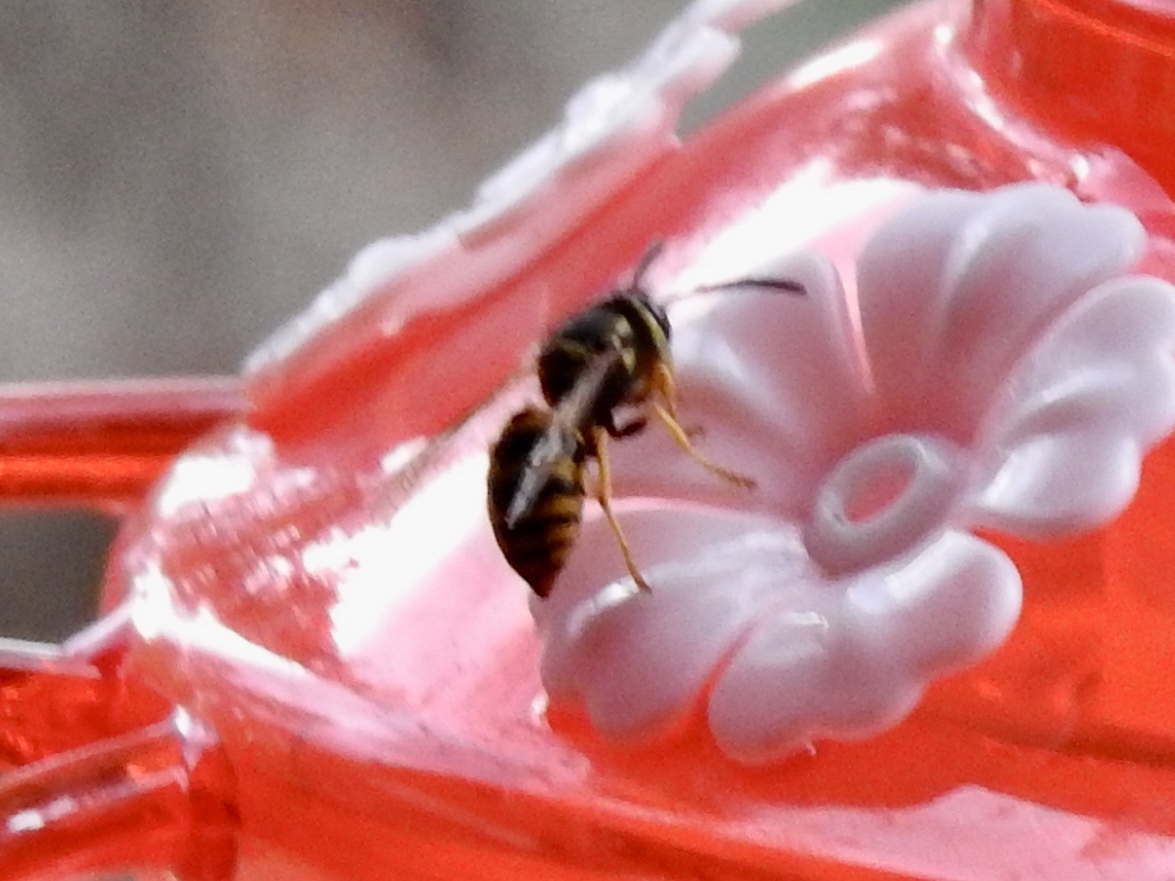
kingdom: Animalia
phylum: Arthropoda
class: Insecta
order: Hymenoptera
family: Vespidae
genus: Vespula
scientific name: Vespula pensylvanica
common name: Western yellowjacket
